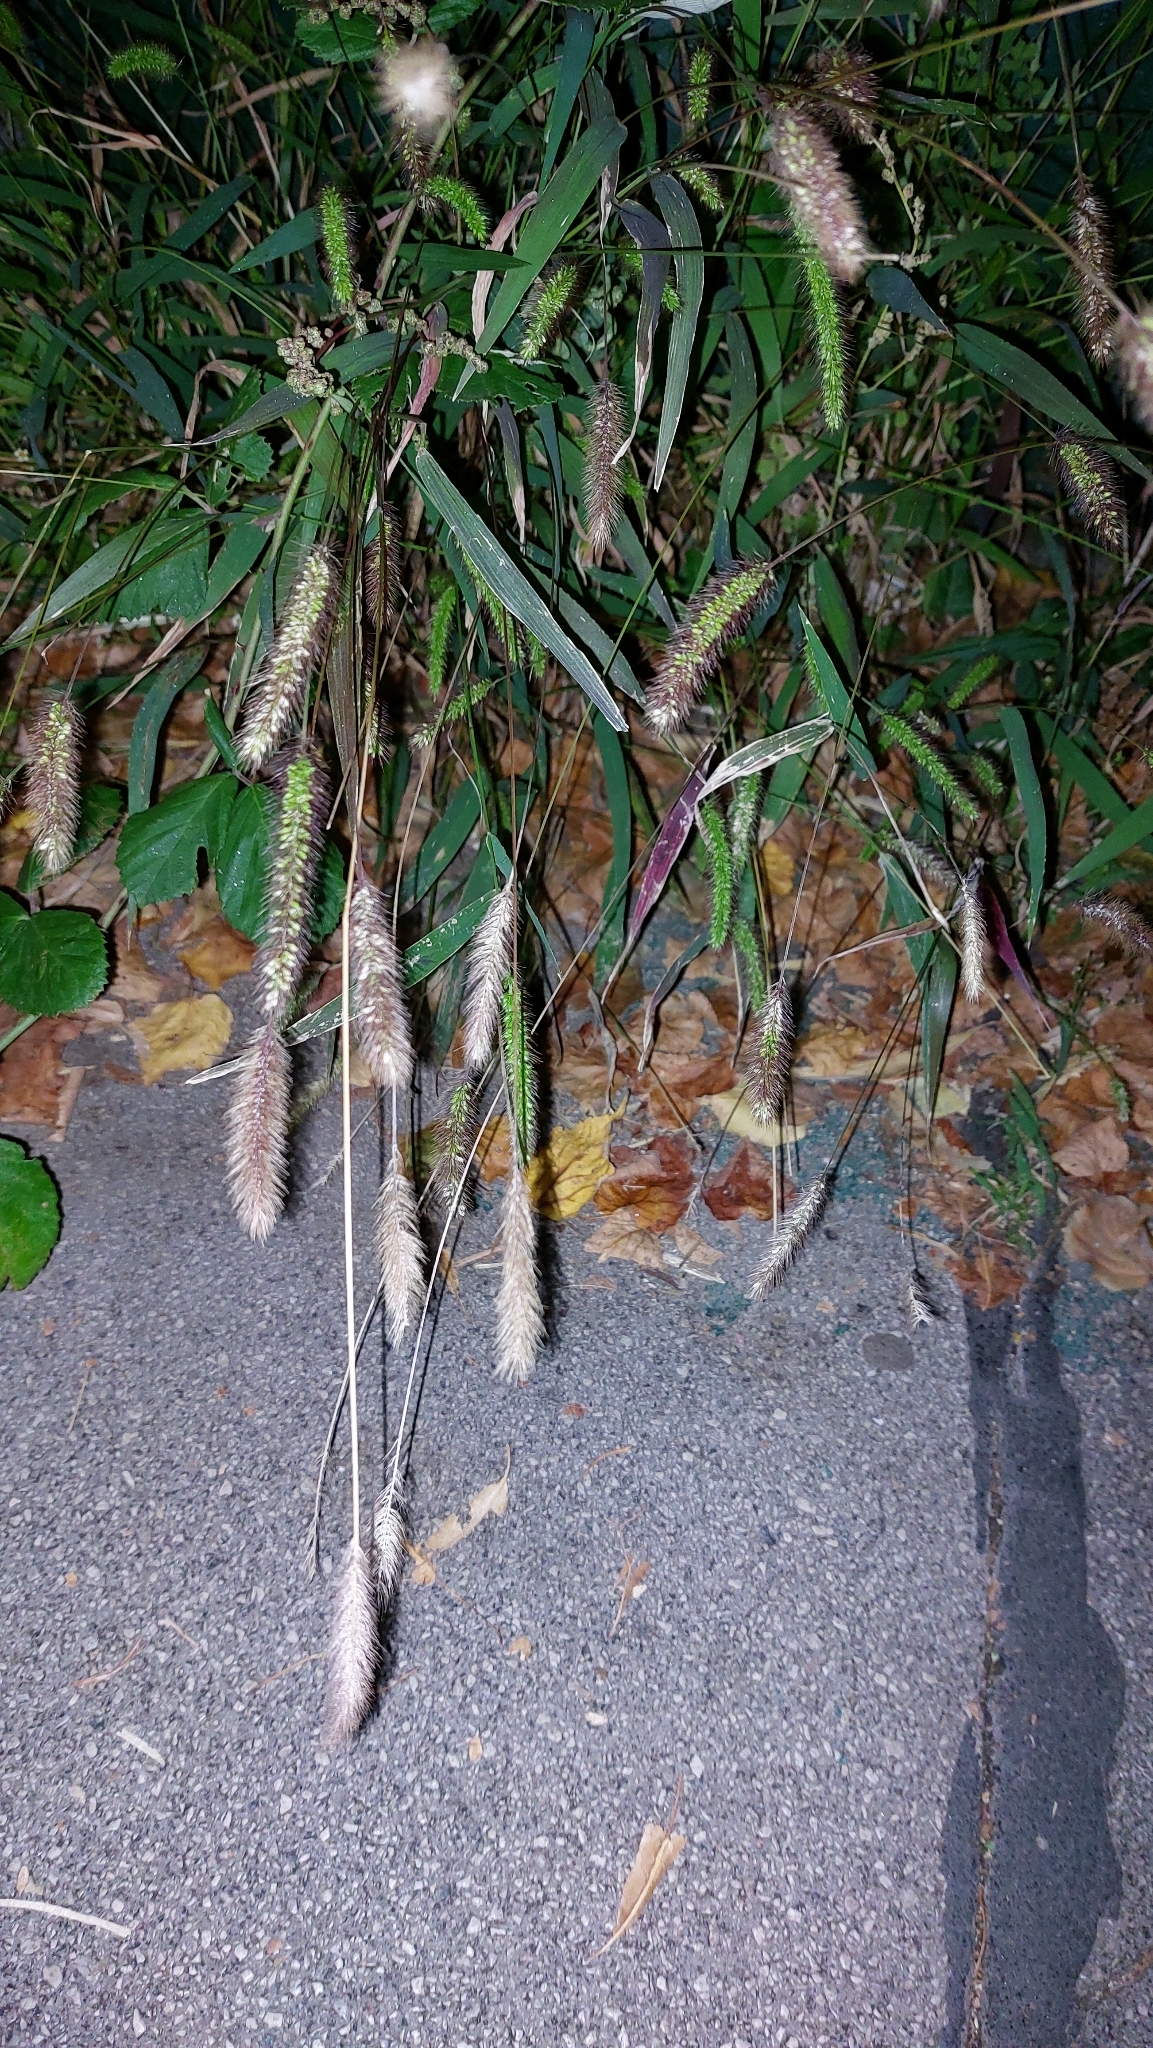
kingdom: Plantae
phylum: Tracheophyta
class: Liliopsida
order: Poales
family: Poaceae
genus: Setaria
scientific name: Setaria viridis
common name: Green bristlegrass
